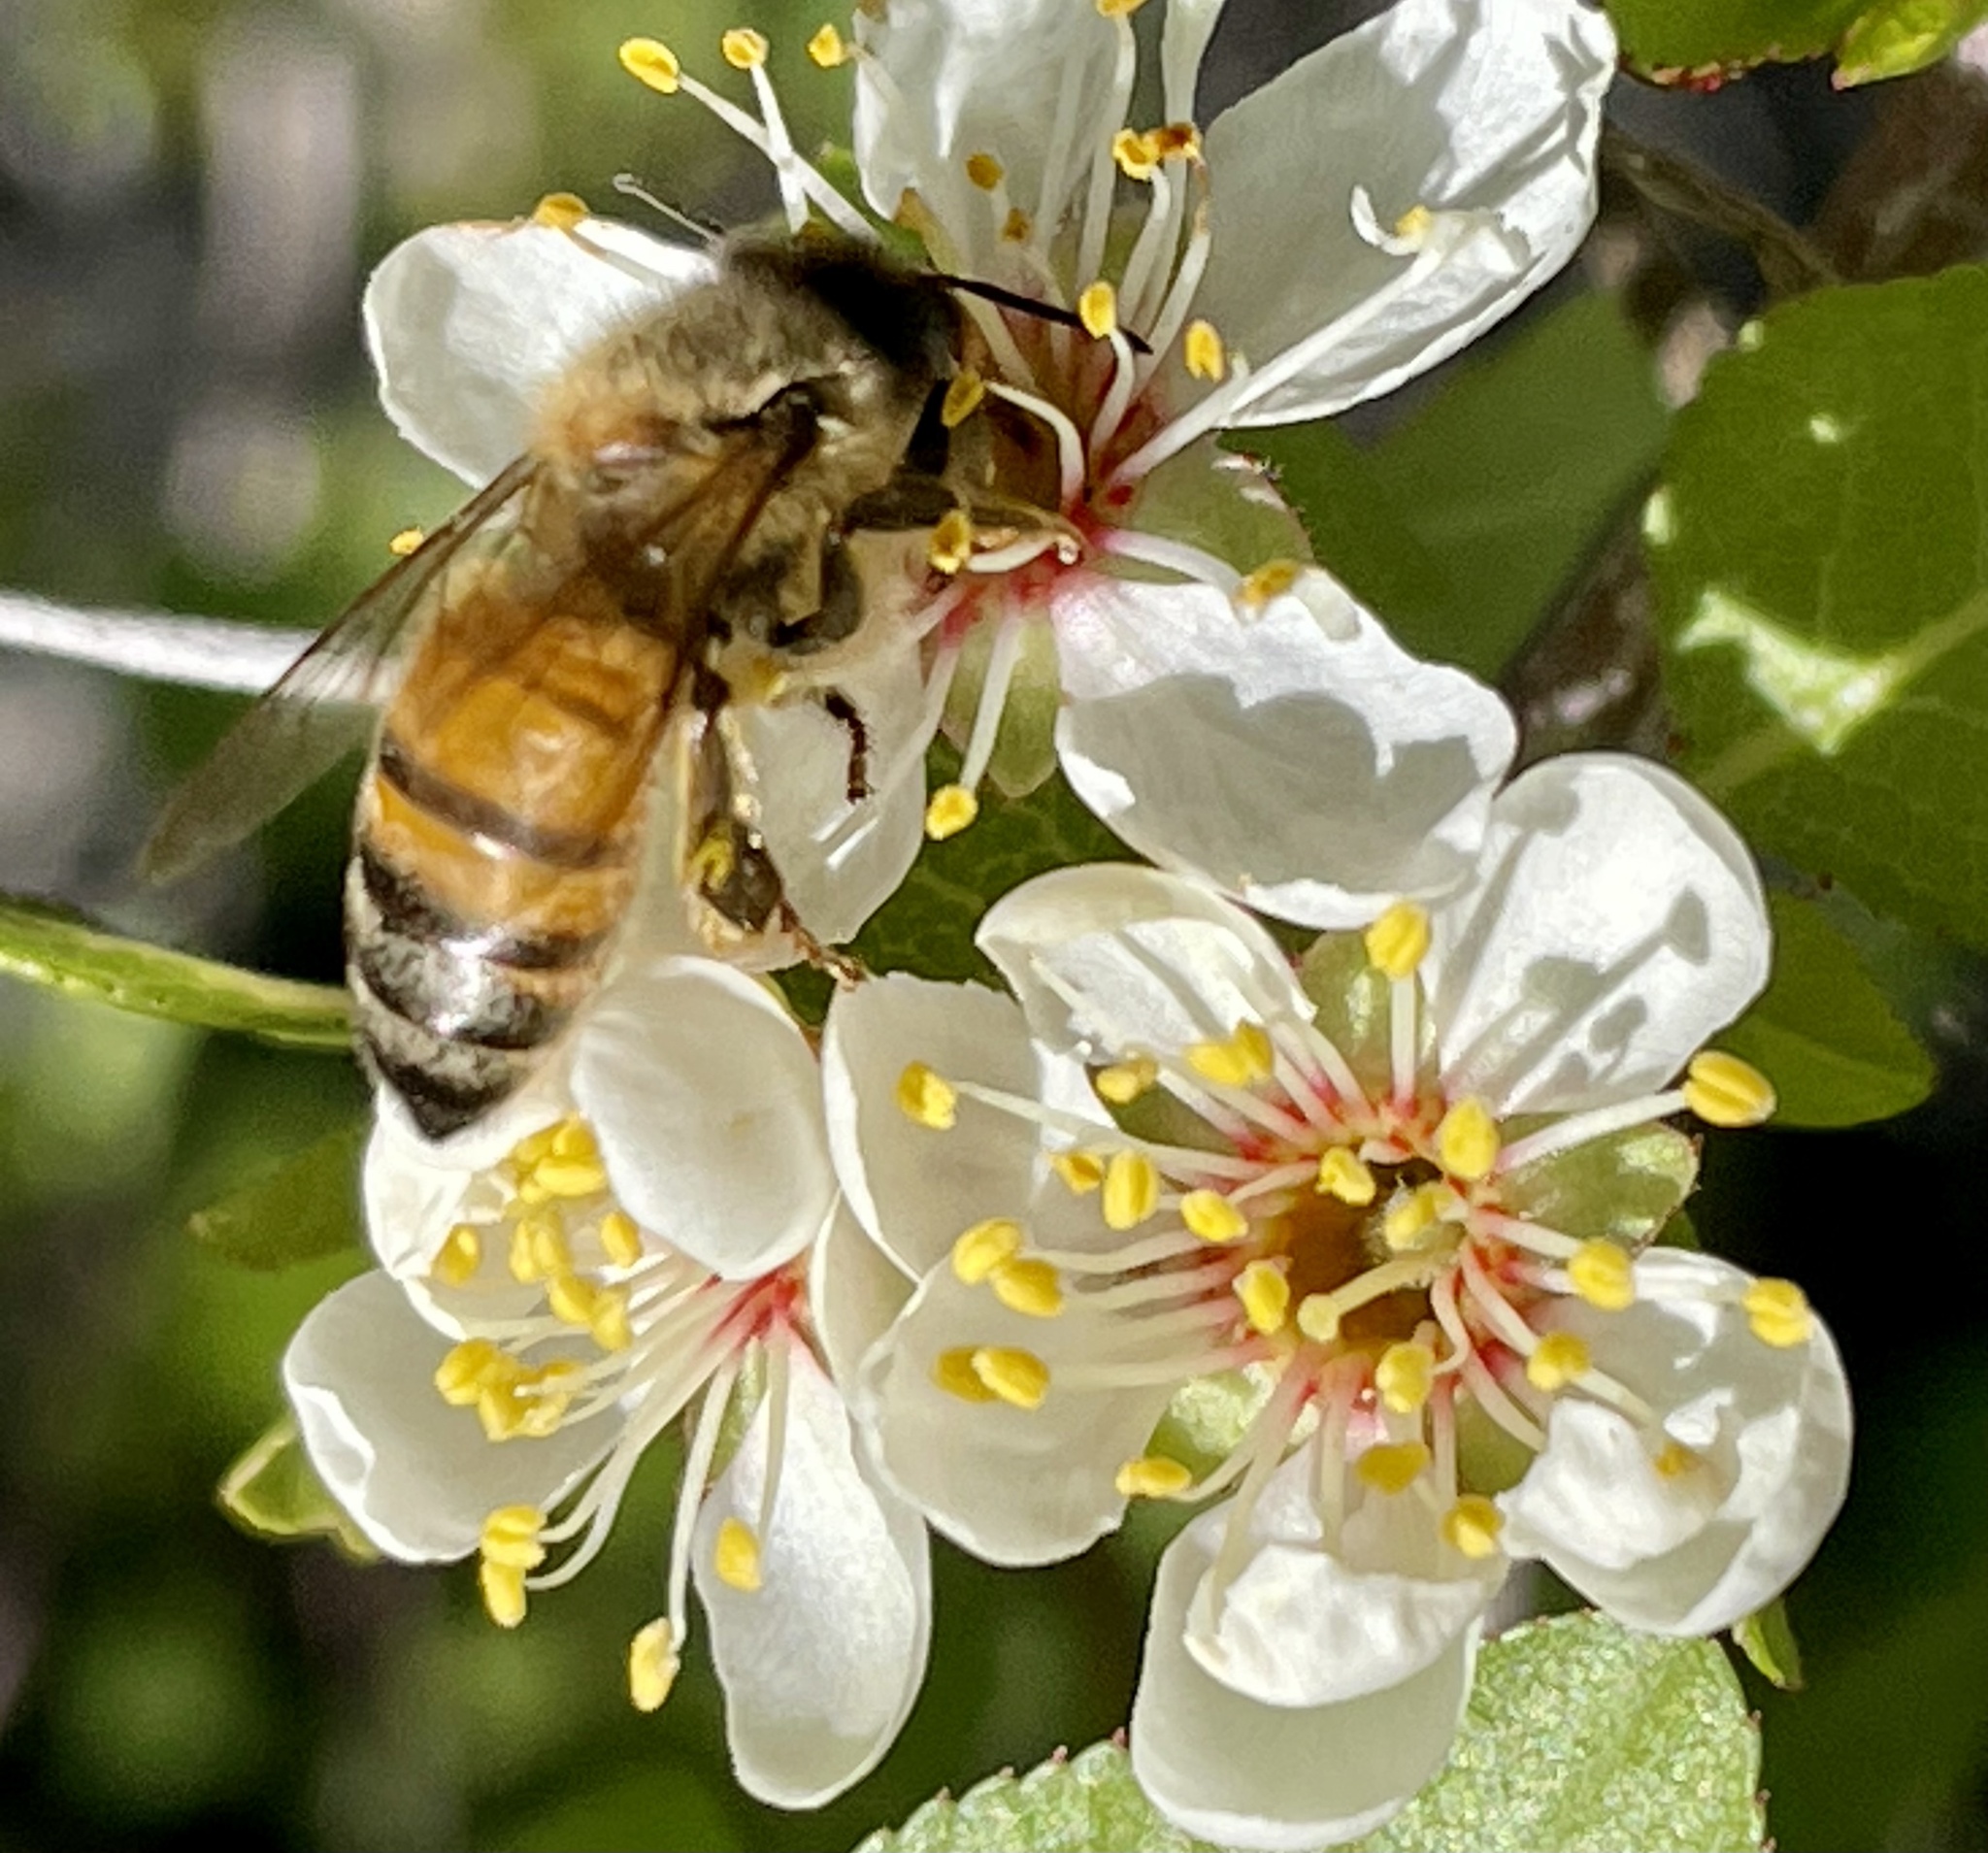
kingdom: Animalia
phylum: Arthropoda
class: Insecta
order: Hymenoptera
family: Apidae
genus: Apis
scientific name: Apis mellifera
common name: Honey bee
